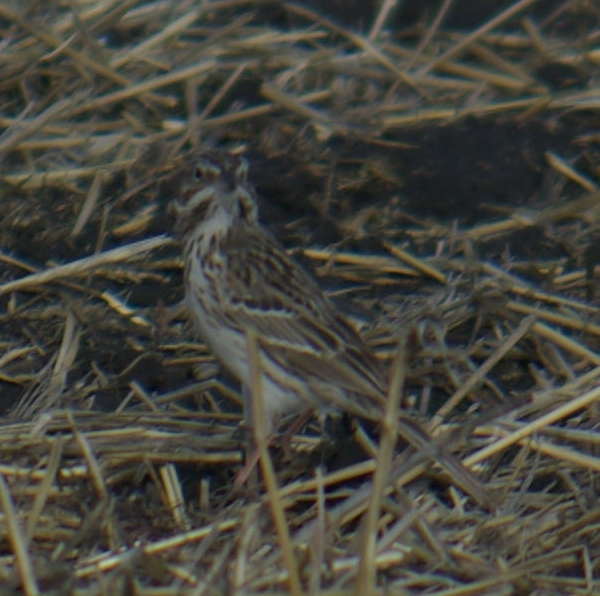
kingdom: Animalia
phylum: Chordata
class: Aves
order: Passeriformes
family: Passerellidae
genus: Pooecetes
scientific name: Pooecetes gramineus
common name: Vesper sparrow
